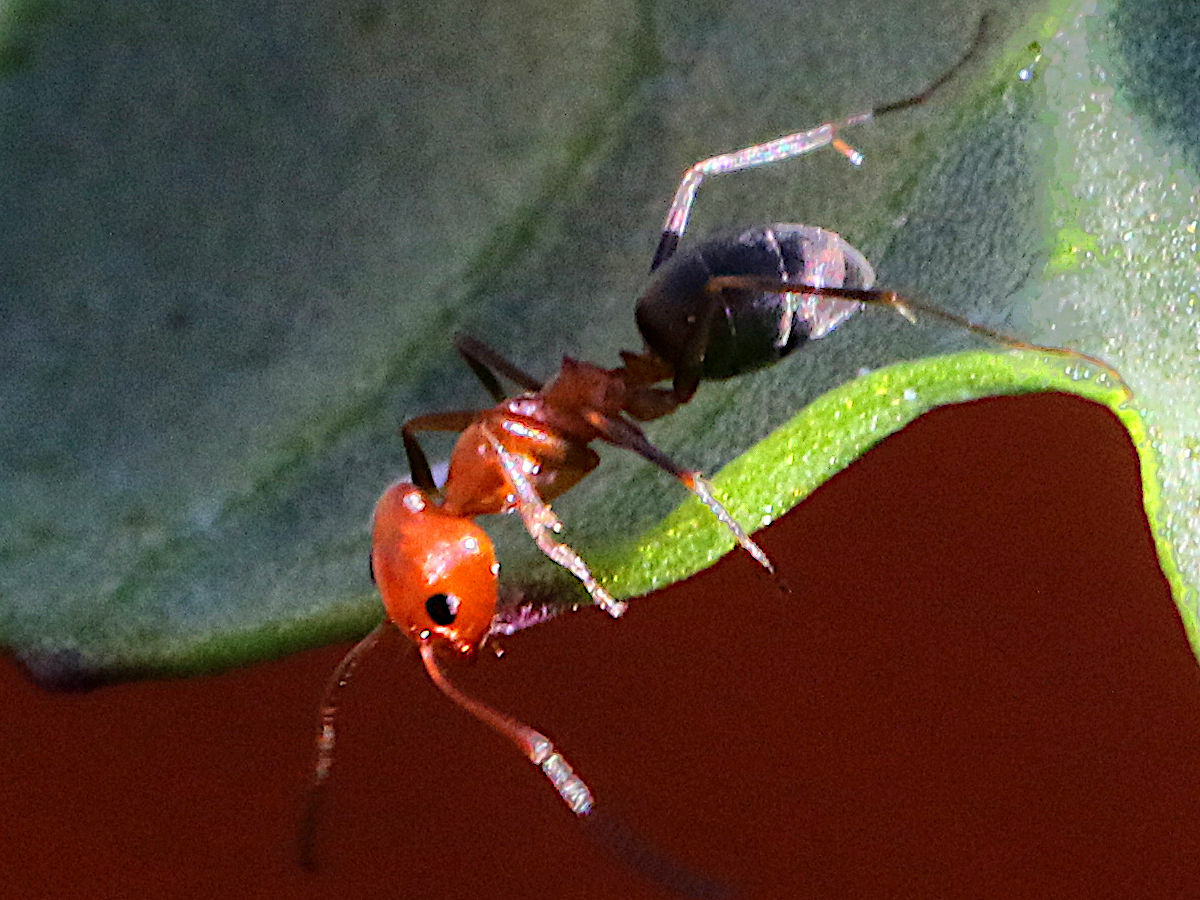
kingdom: Animalia
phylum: Arthropoda
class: Insecta
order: Hymenoptera
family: Formicidae
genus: Dorymyrmex
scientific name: Dorymyrmex bicolor
